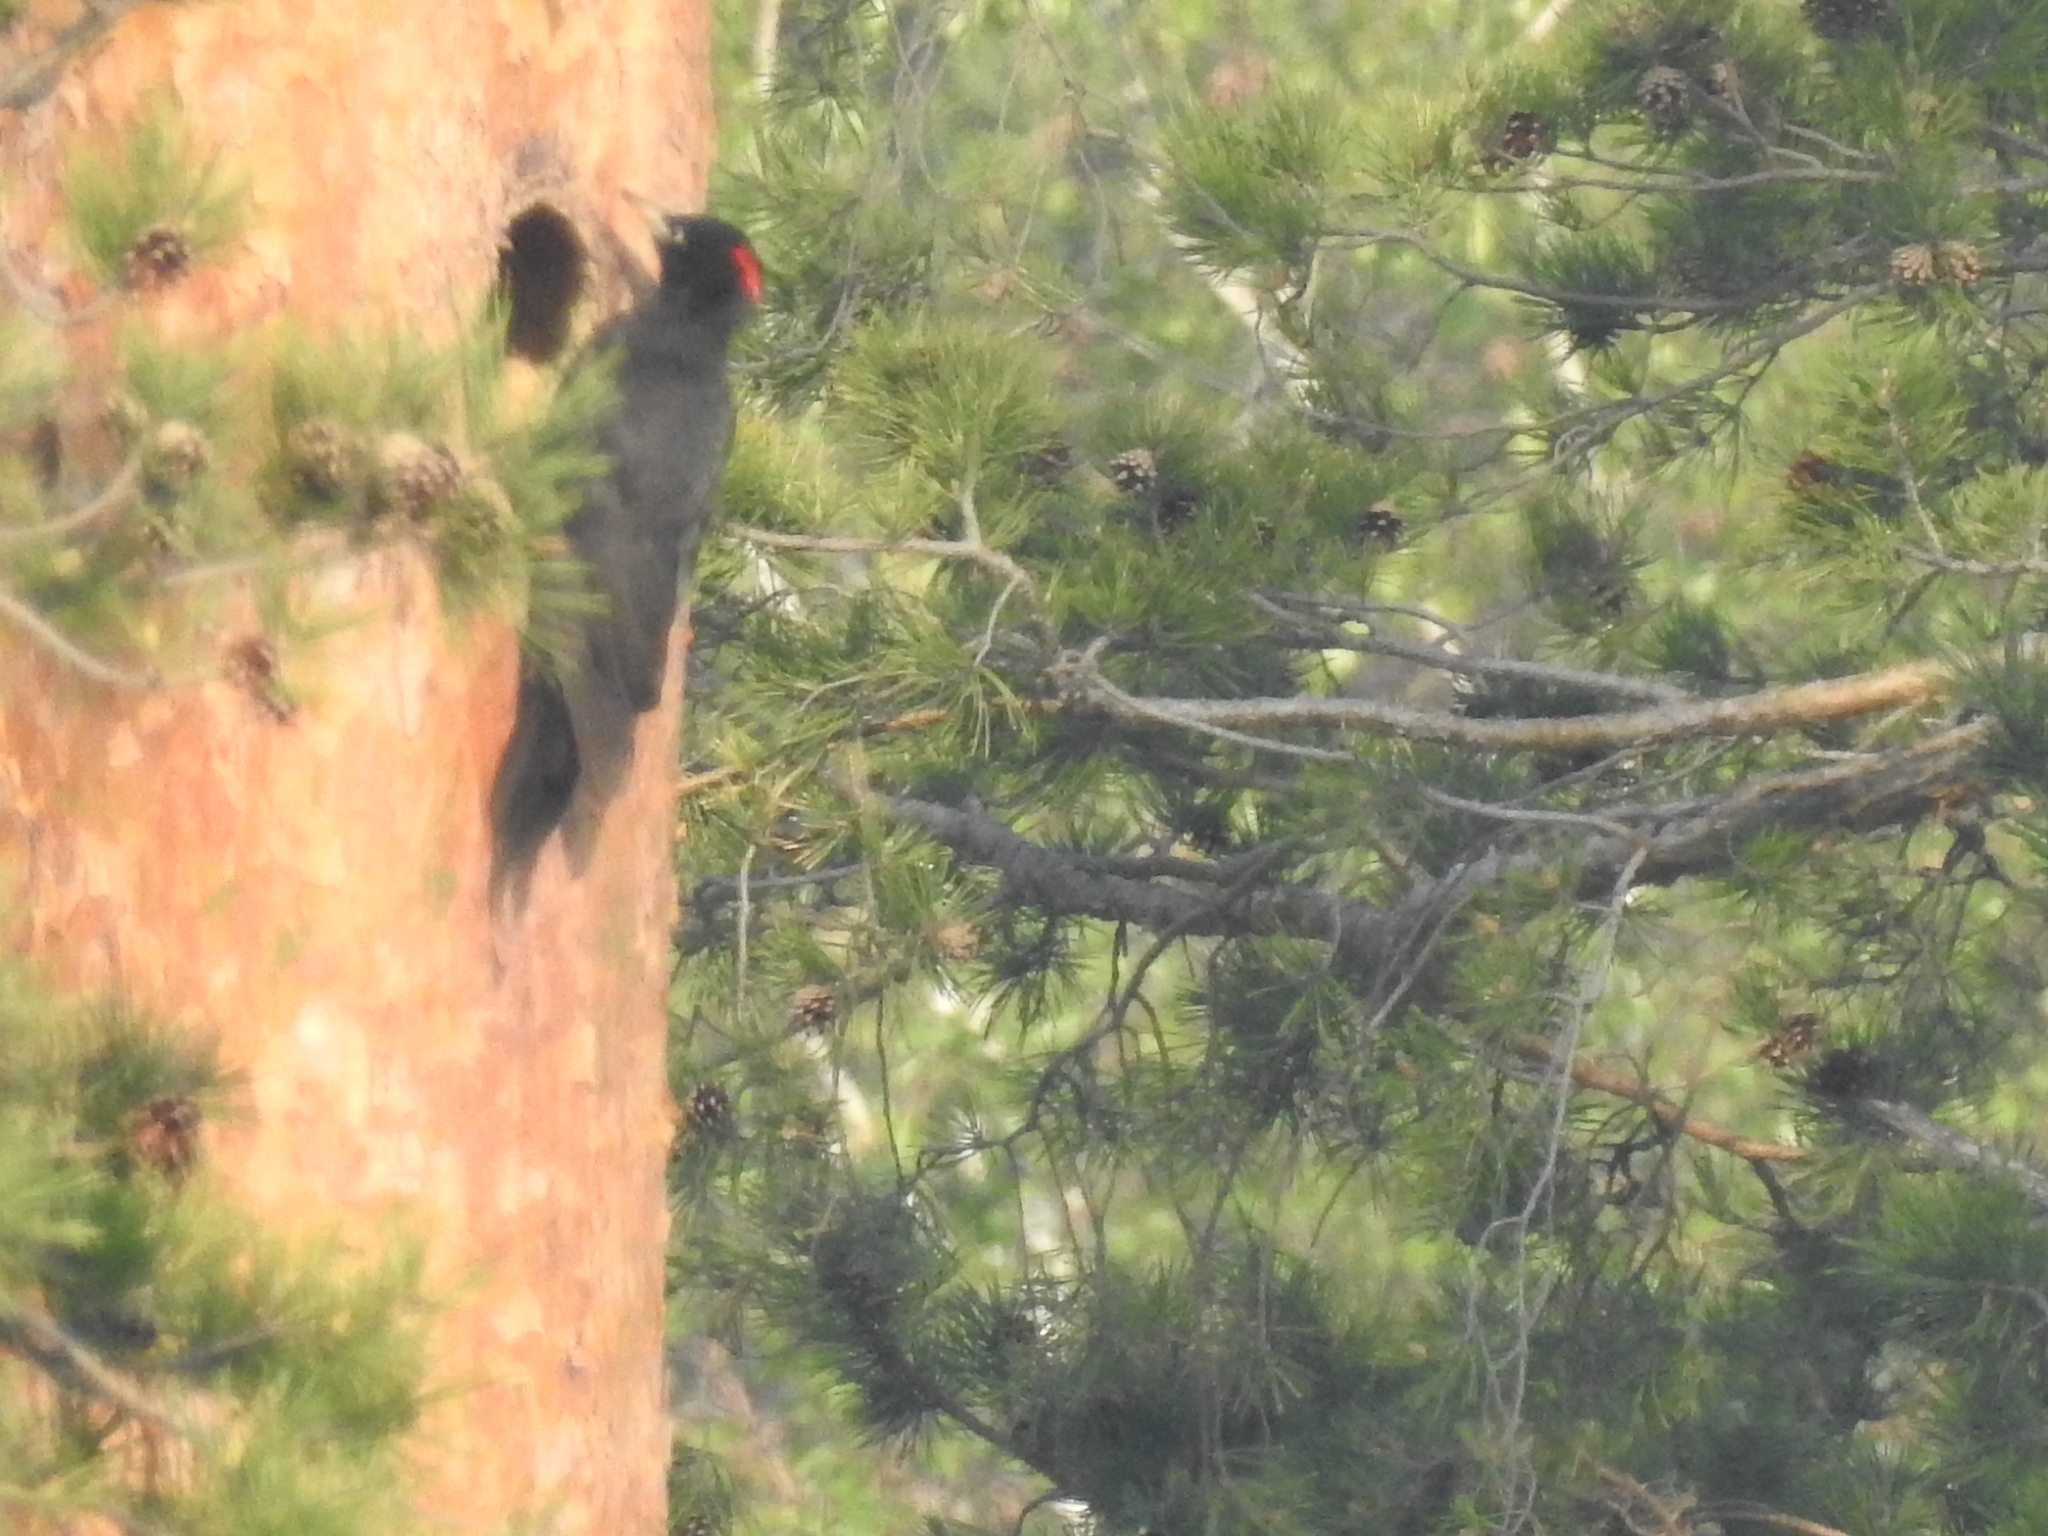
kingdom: Animalia
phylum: Chordata
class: Aves
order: Piciformes
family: Picidae
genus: Dryocopus
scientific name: Dryocopus martius
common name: Black woodpecker
